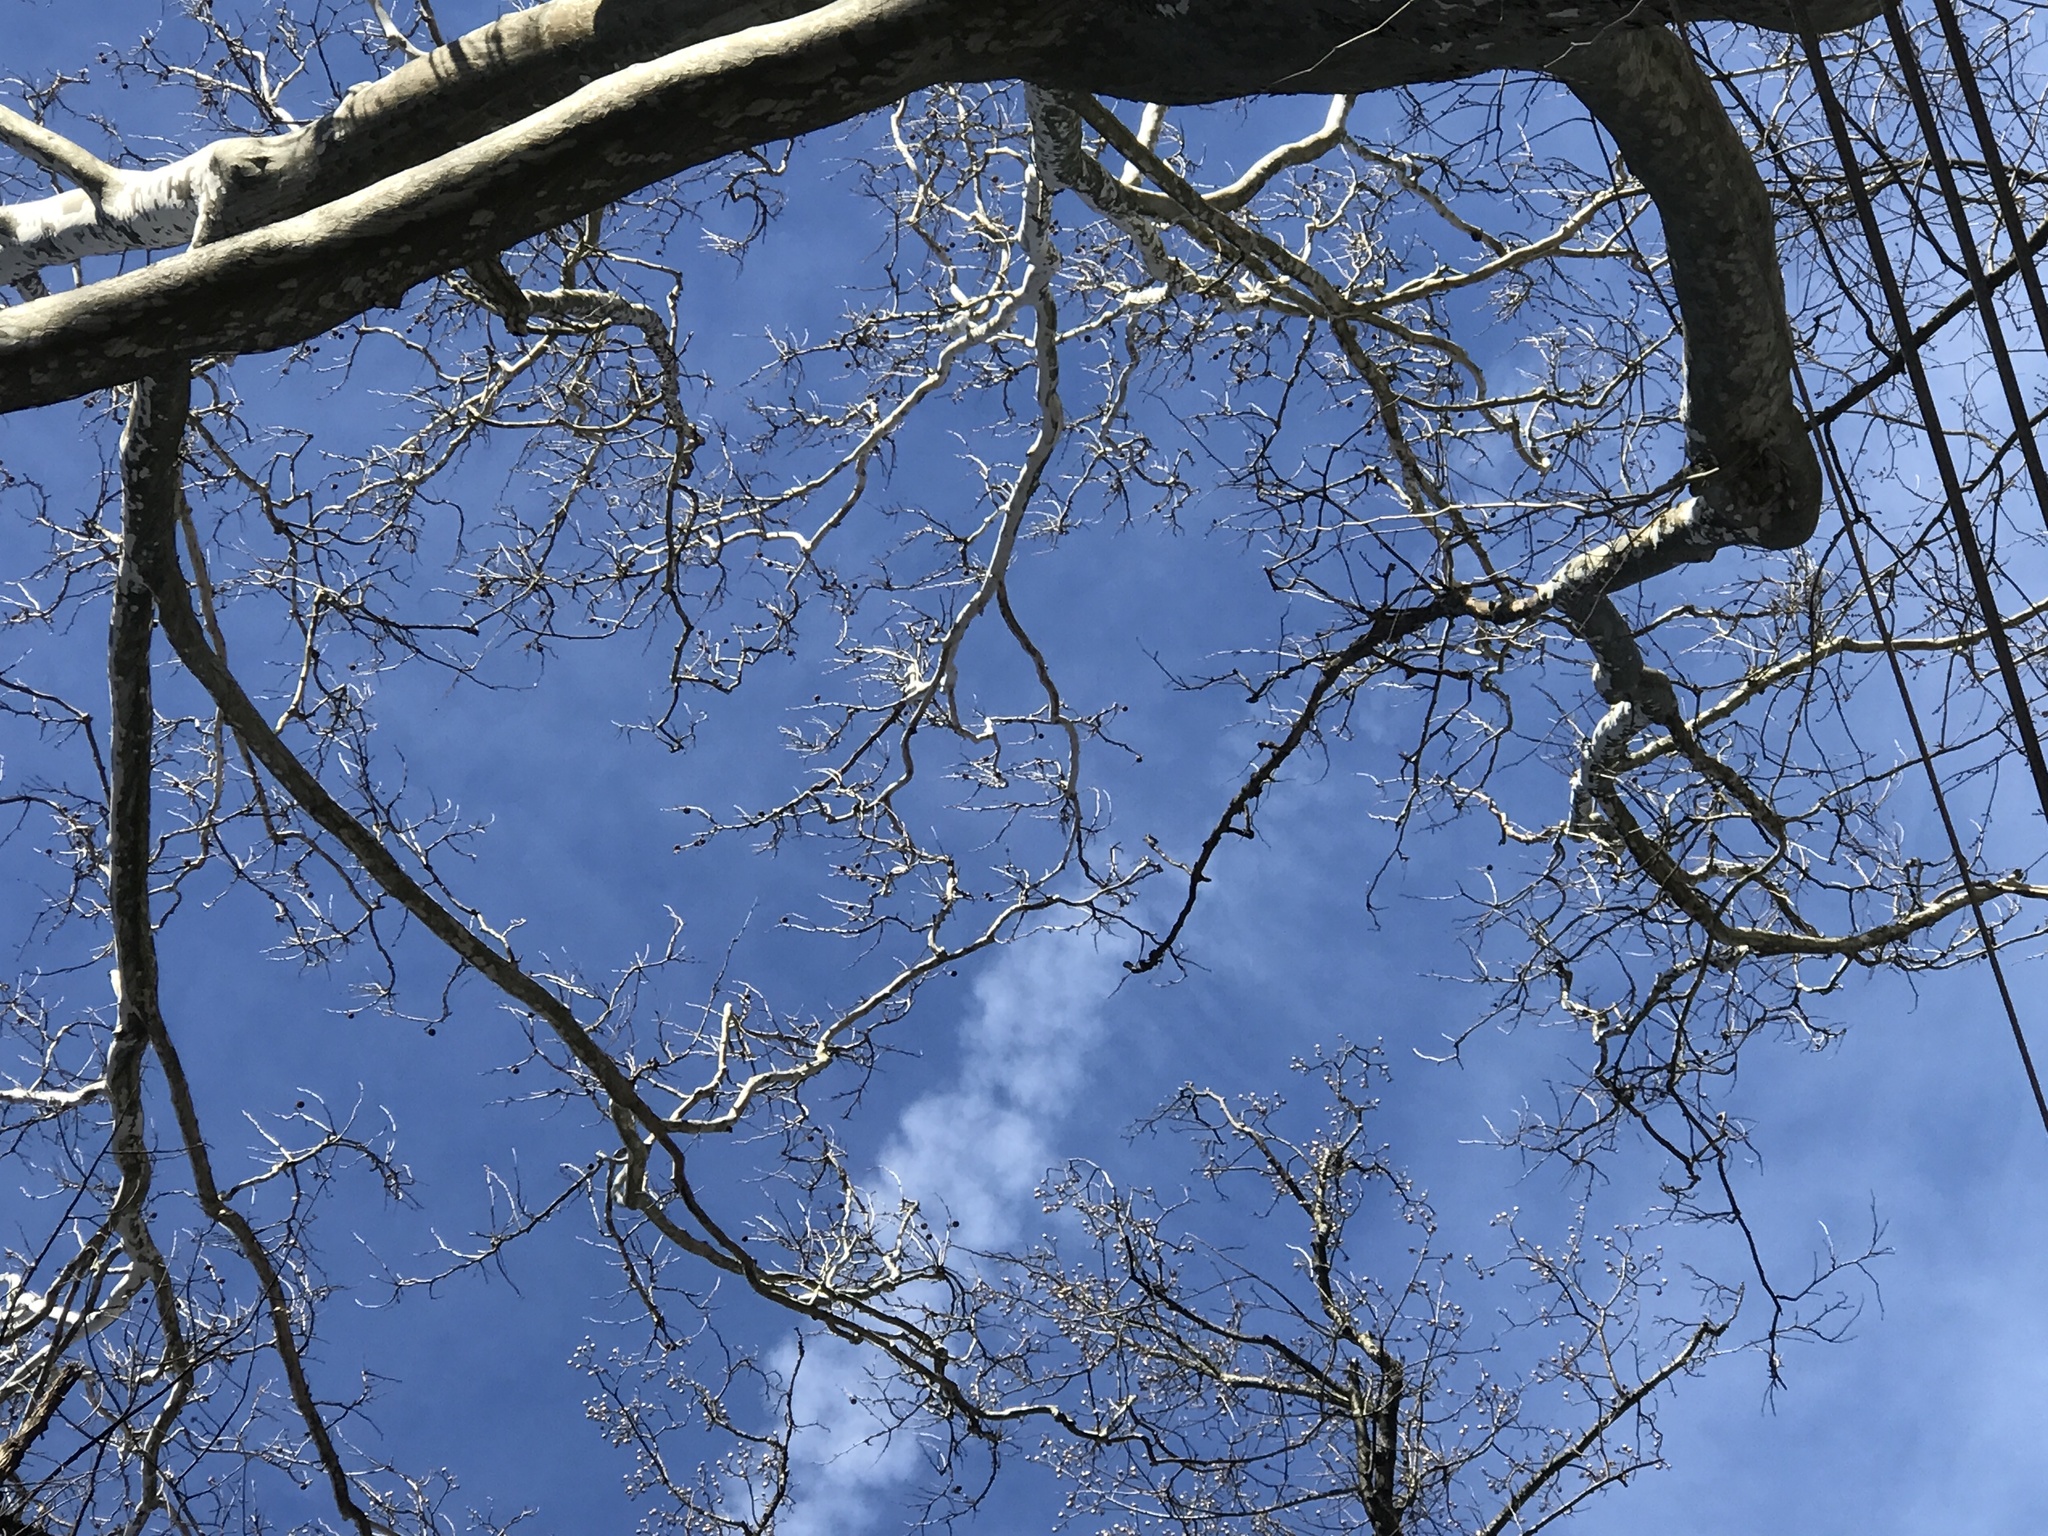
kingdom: Plantae
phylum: Tracheophyta
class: Magnoliopsida
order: Proteales
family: Platanaceae
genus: Platanus
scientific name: Platanus occidentalis
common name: American sycamore
